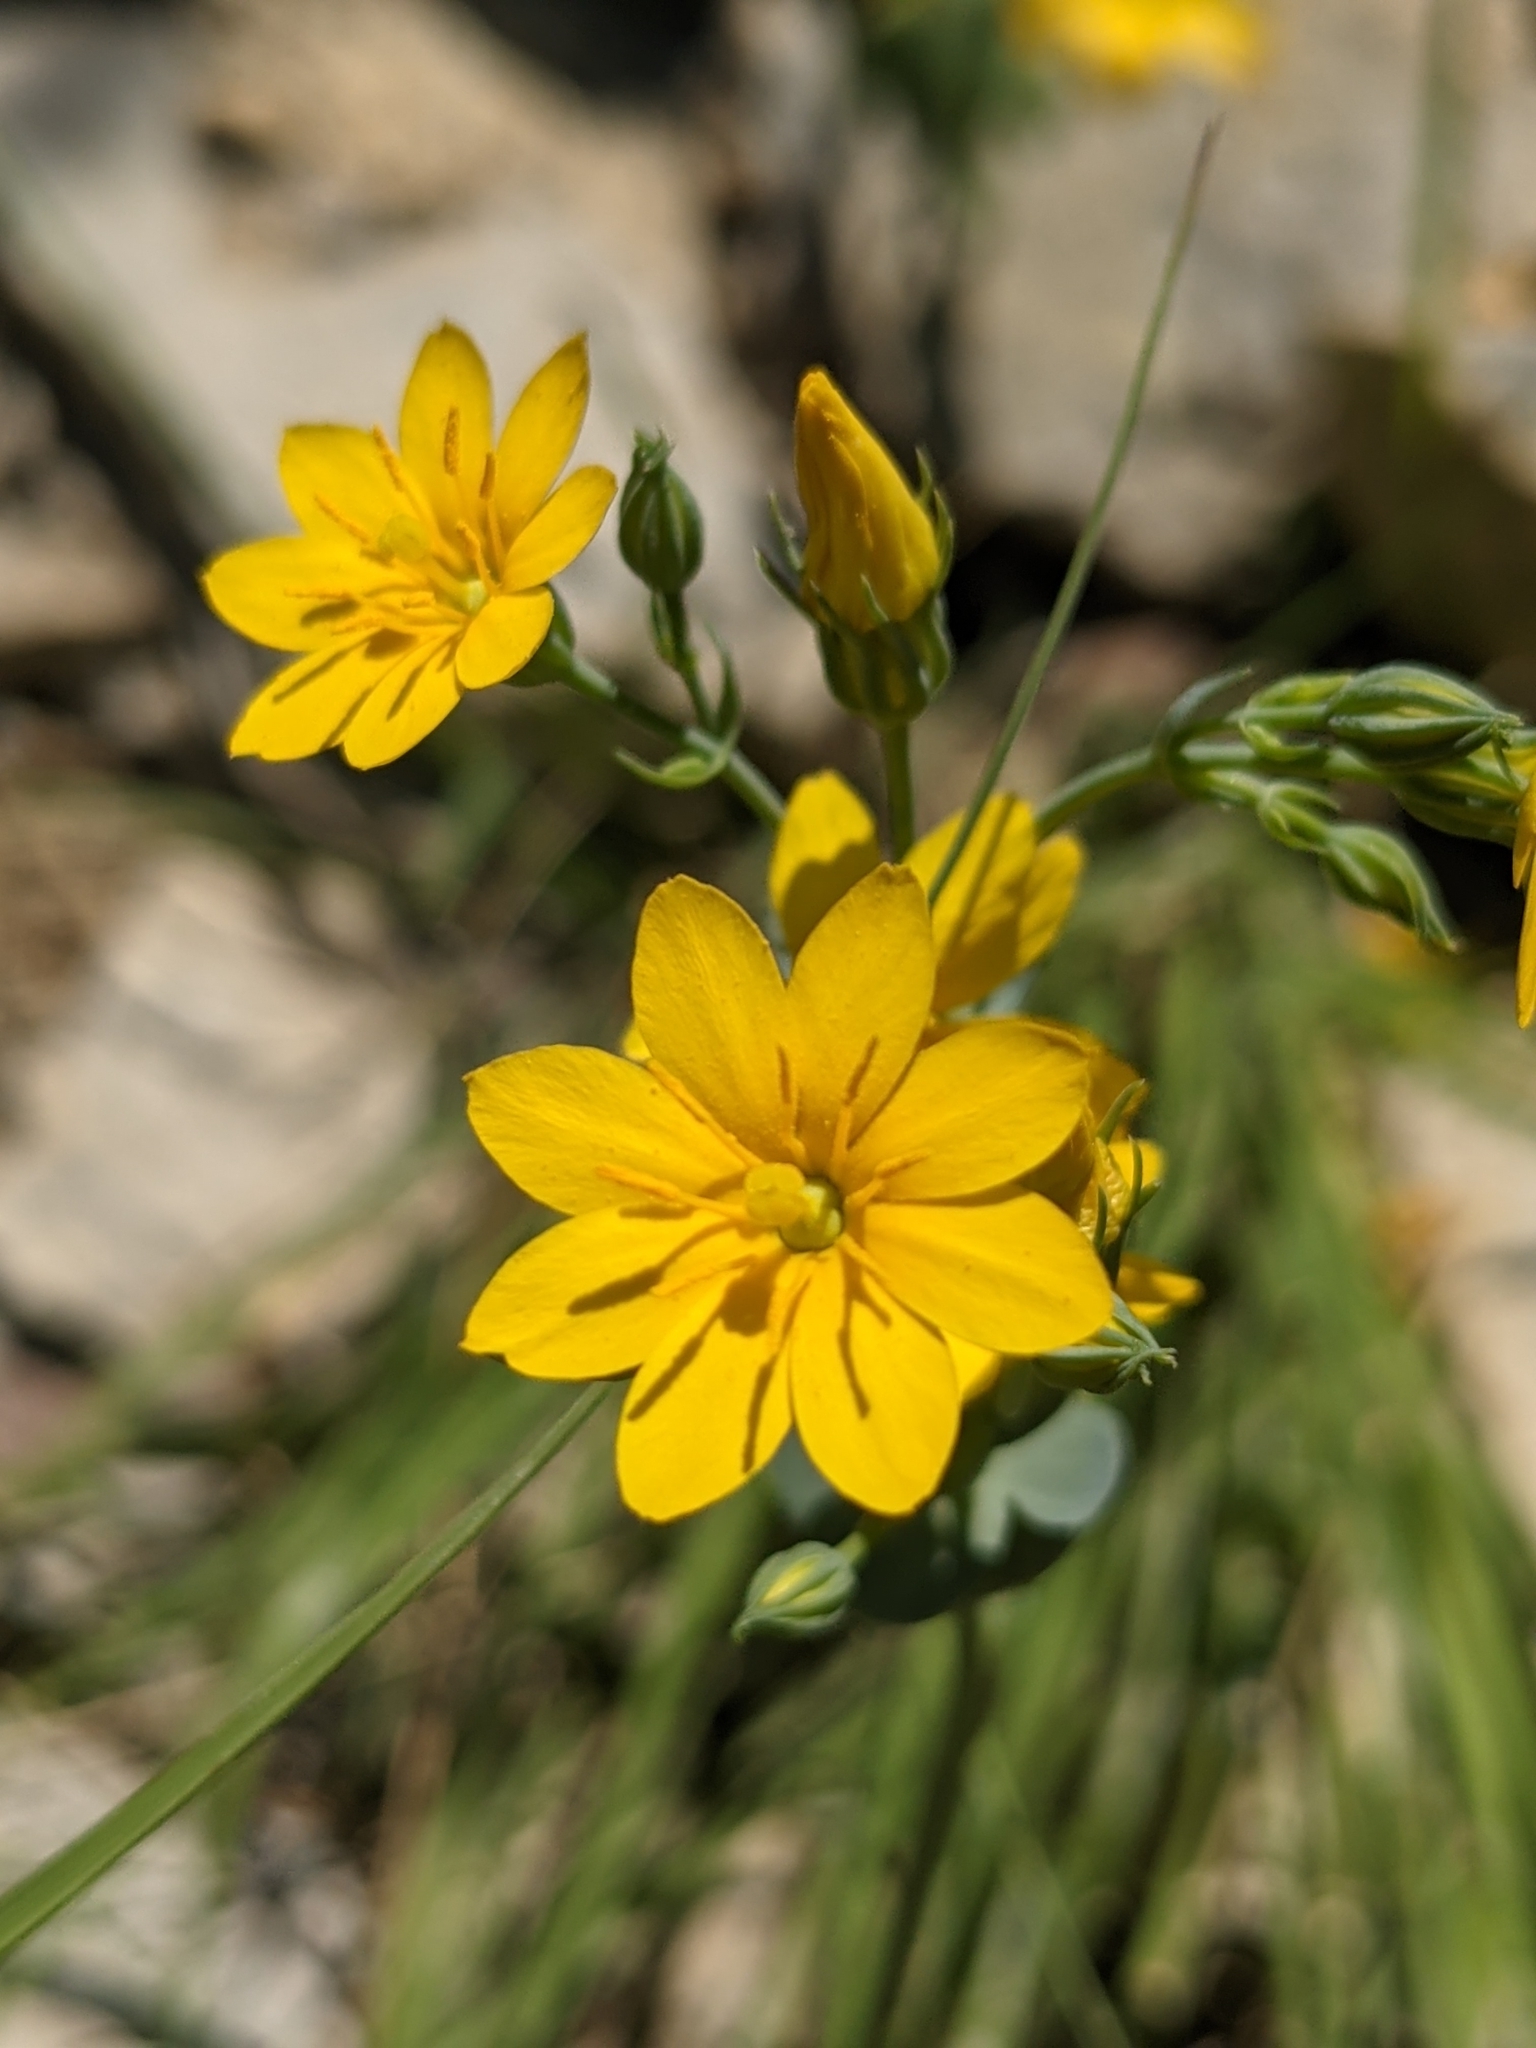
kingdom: Plantae
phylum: Tracheophyta
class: Magnoliopsida
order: Gentianales
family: Gentianaceae
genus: Blackstonia
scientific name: Blackstonia perfoliata
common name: Yellow-wort
